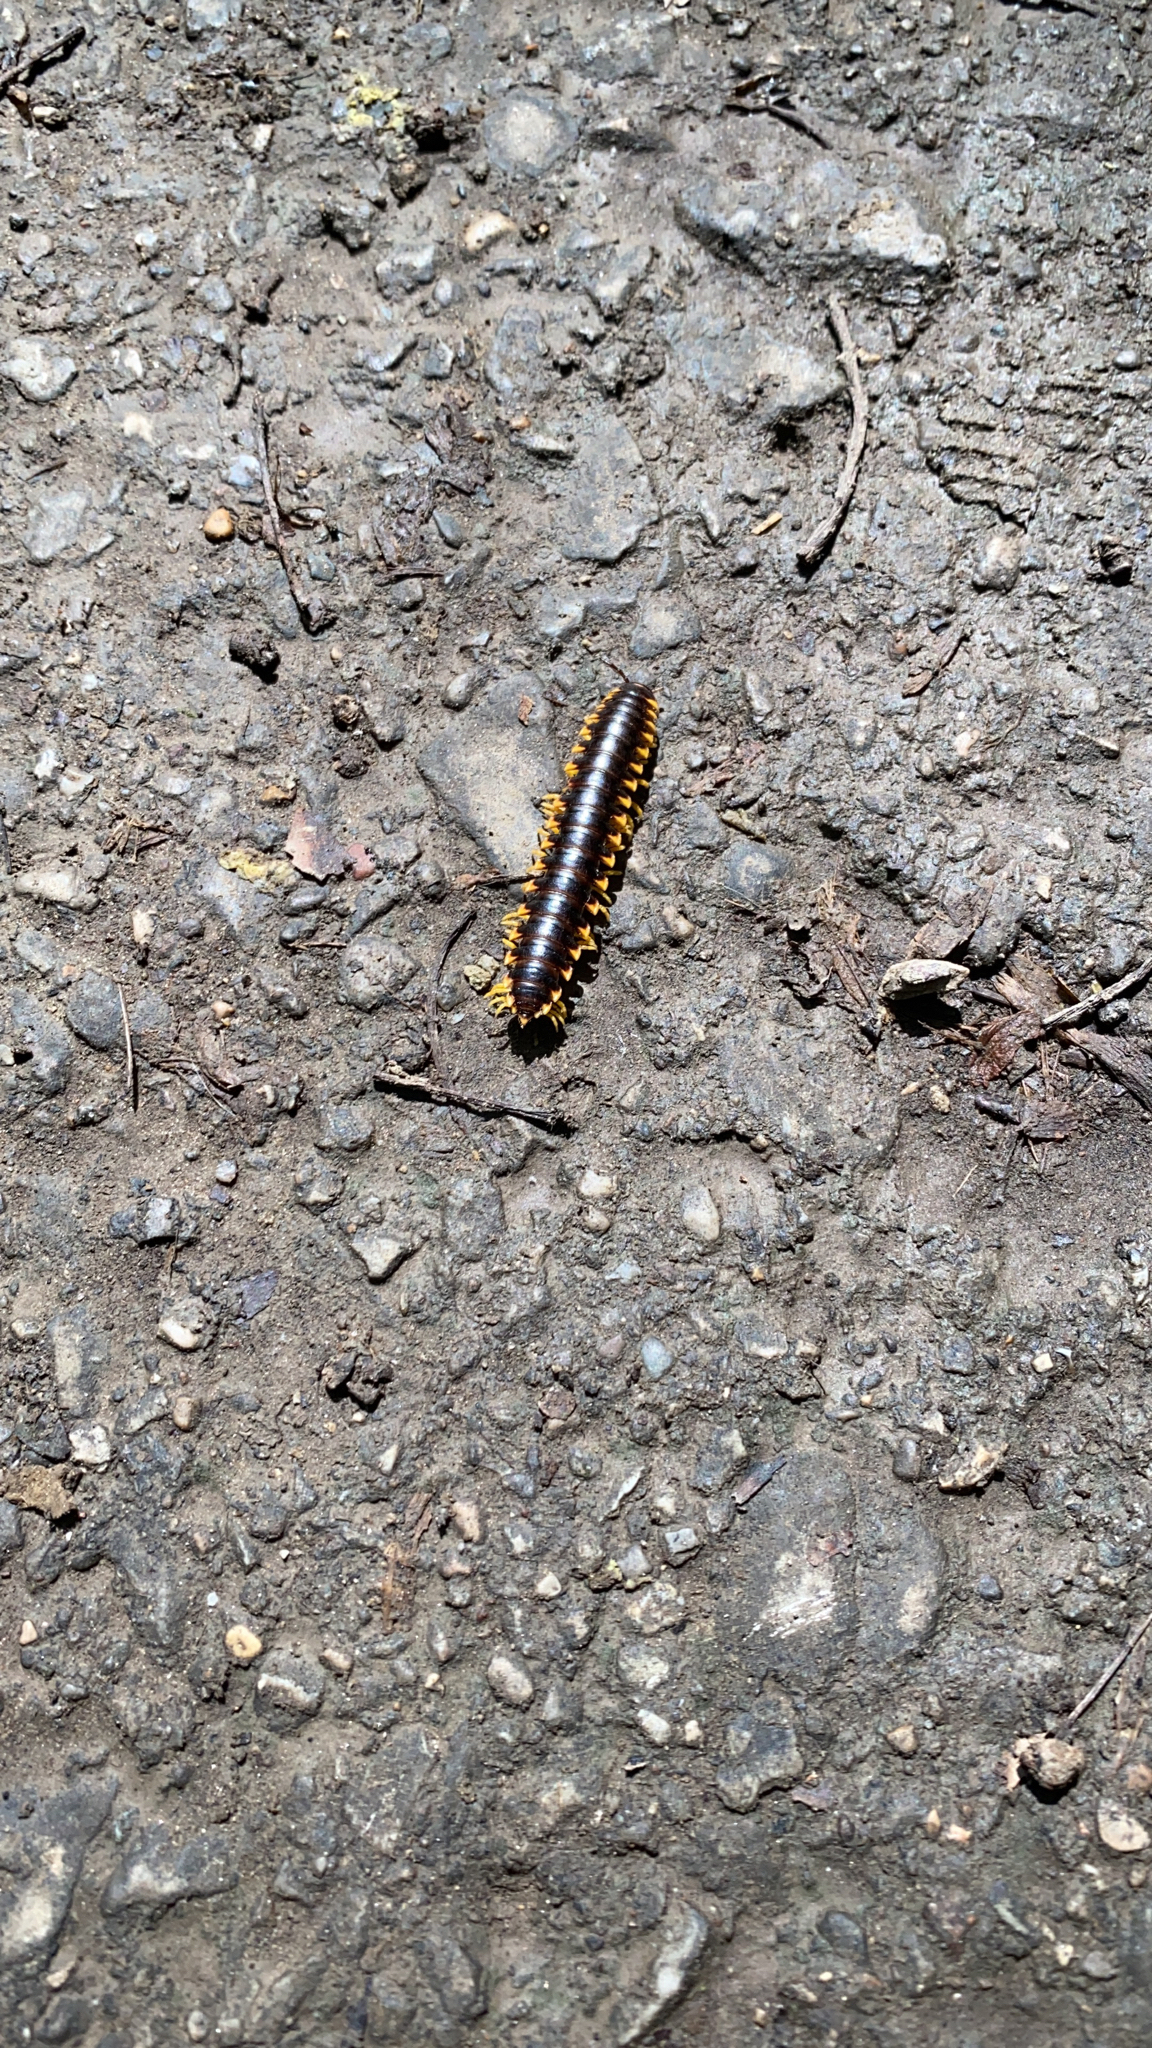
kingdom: Animalia
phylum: Arthropoda
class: Diplopoda
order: Polydesmida
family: Xystodesmidae
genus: Apheloria
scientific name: Apheloria virginiensis
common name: Black-and-gold flat millipede
